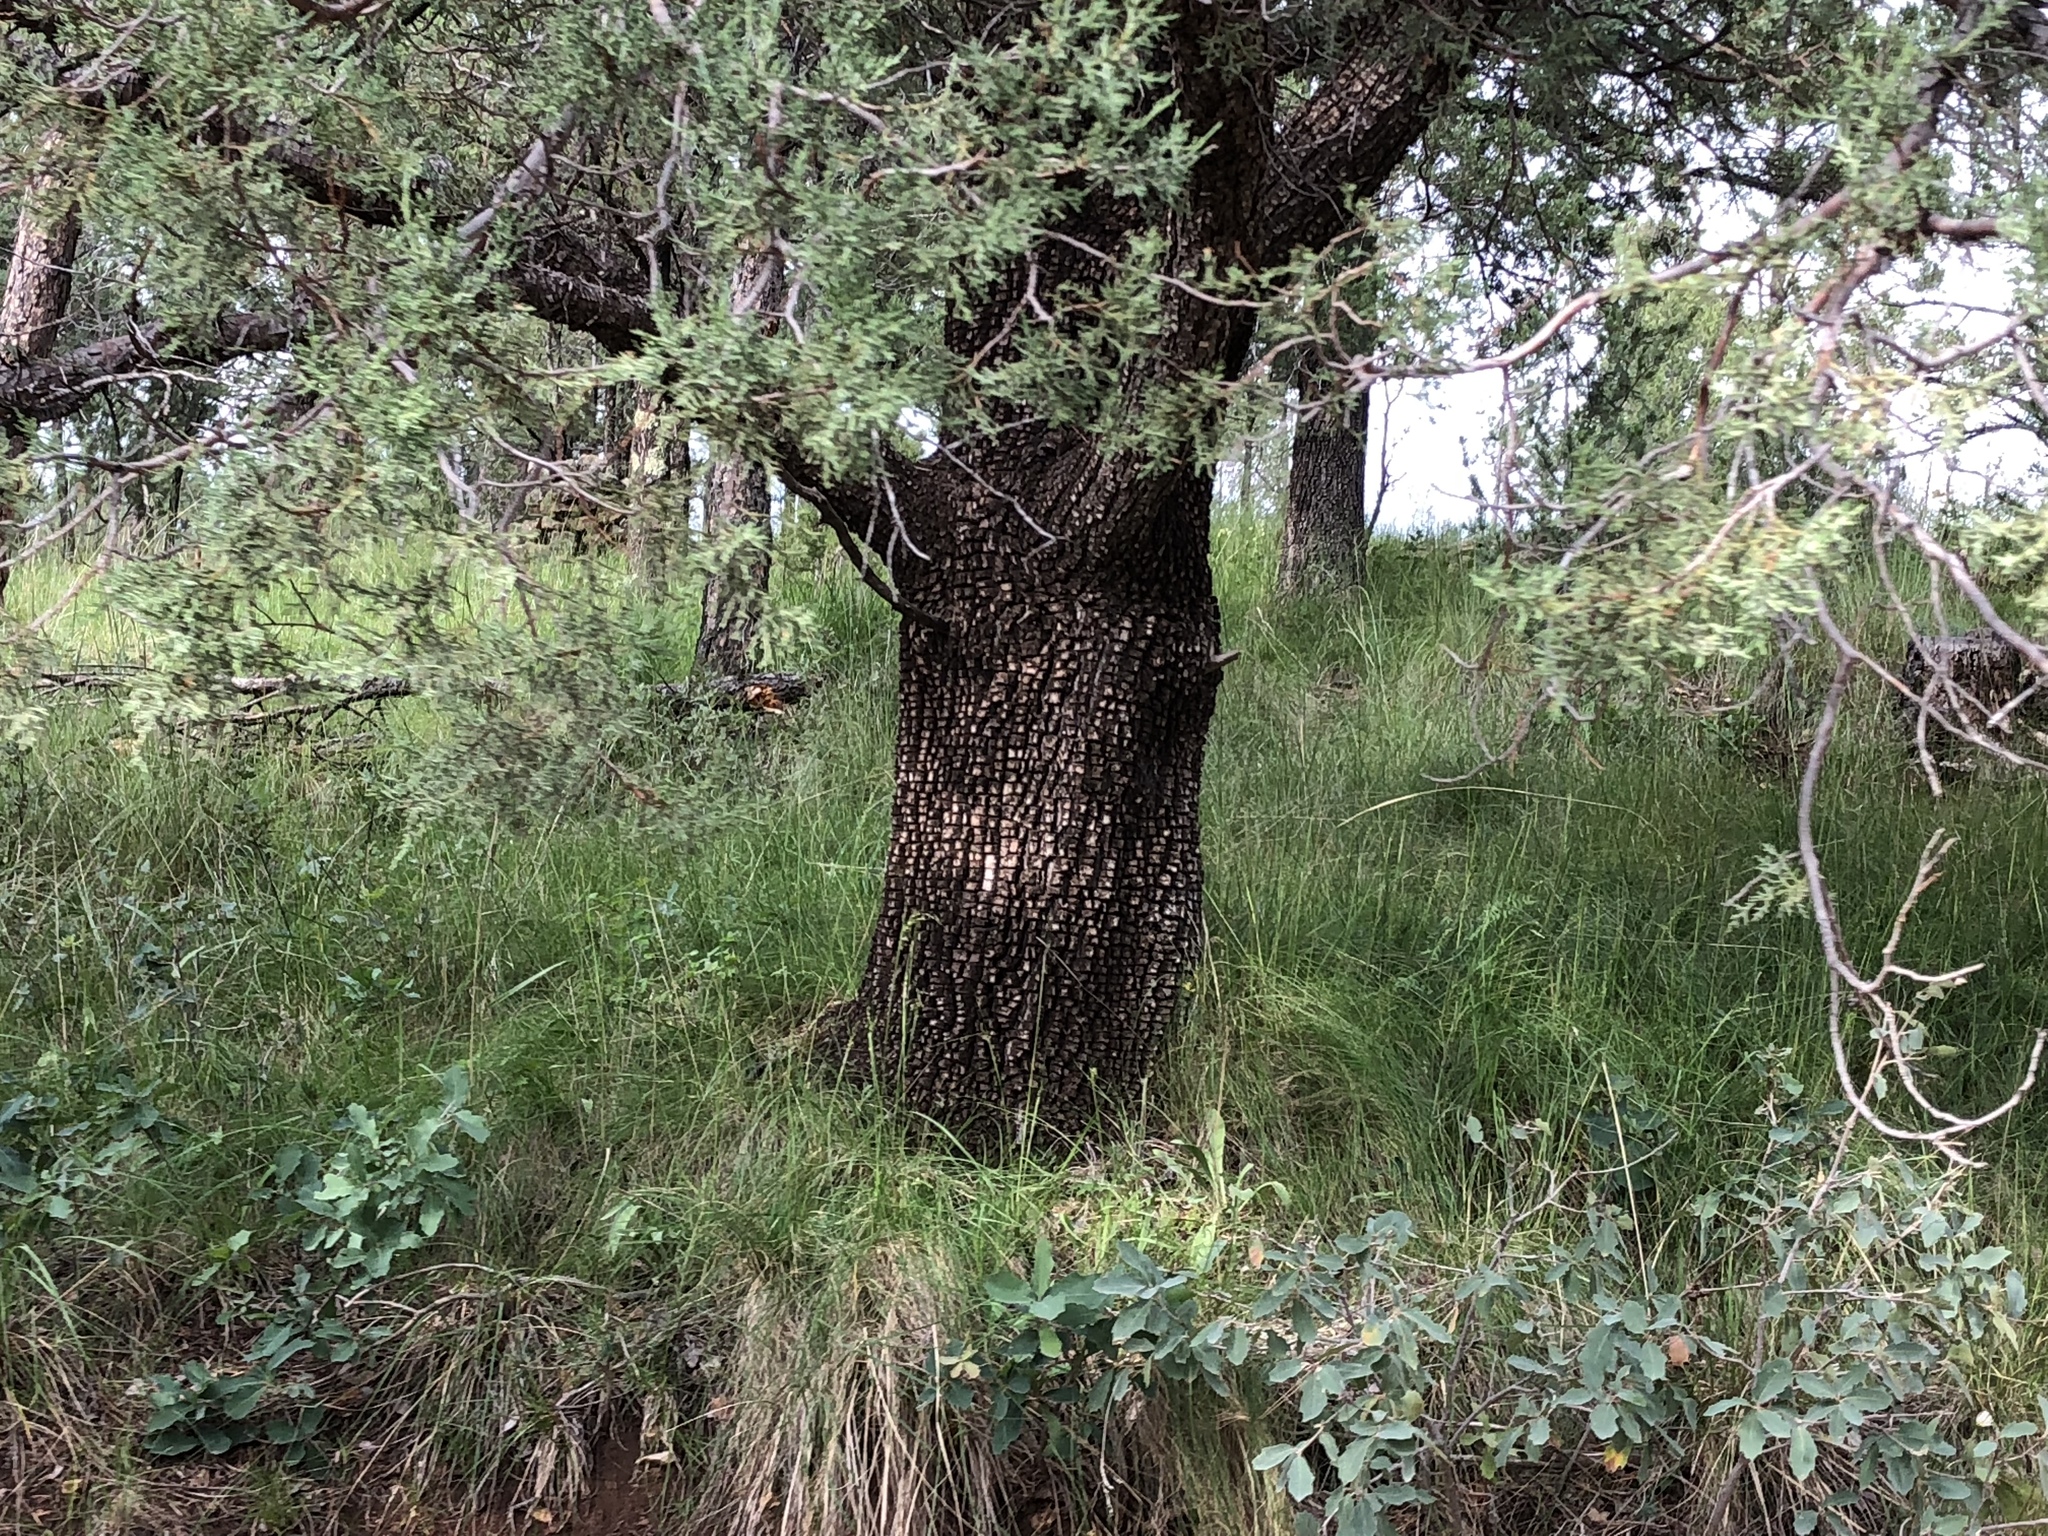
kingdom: Plantae
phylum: Tracheophyta
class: Pinopsida
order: Pinales
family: Cupressaceae
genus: Juniperus
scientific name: Juniperus deppeana
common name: Alligator juniper
